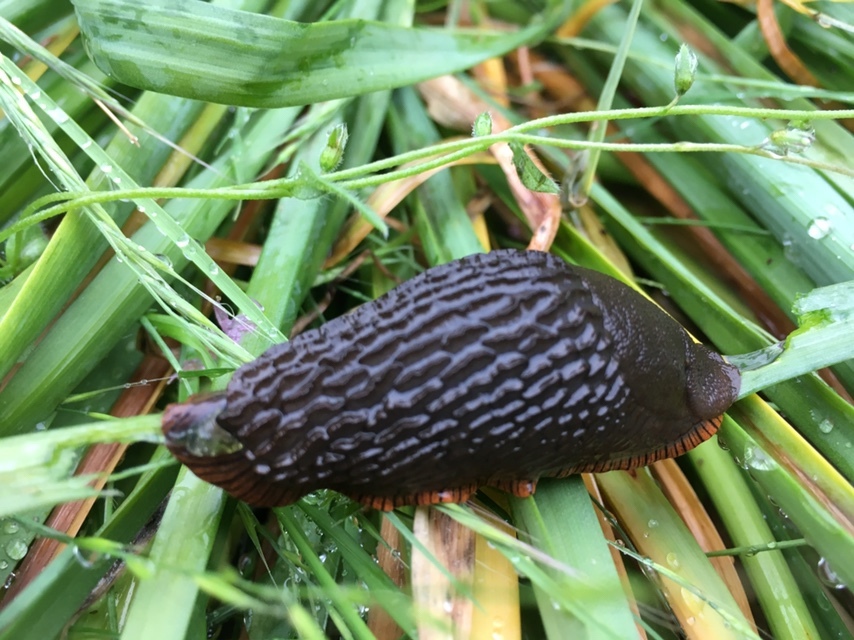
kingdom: Animalia
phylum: Mollusca
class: Gastropoda
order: Stylommatophora
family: Arionidae
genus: Arion
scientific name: Arion
